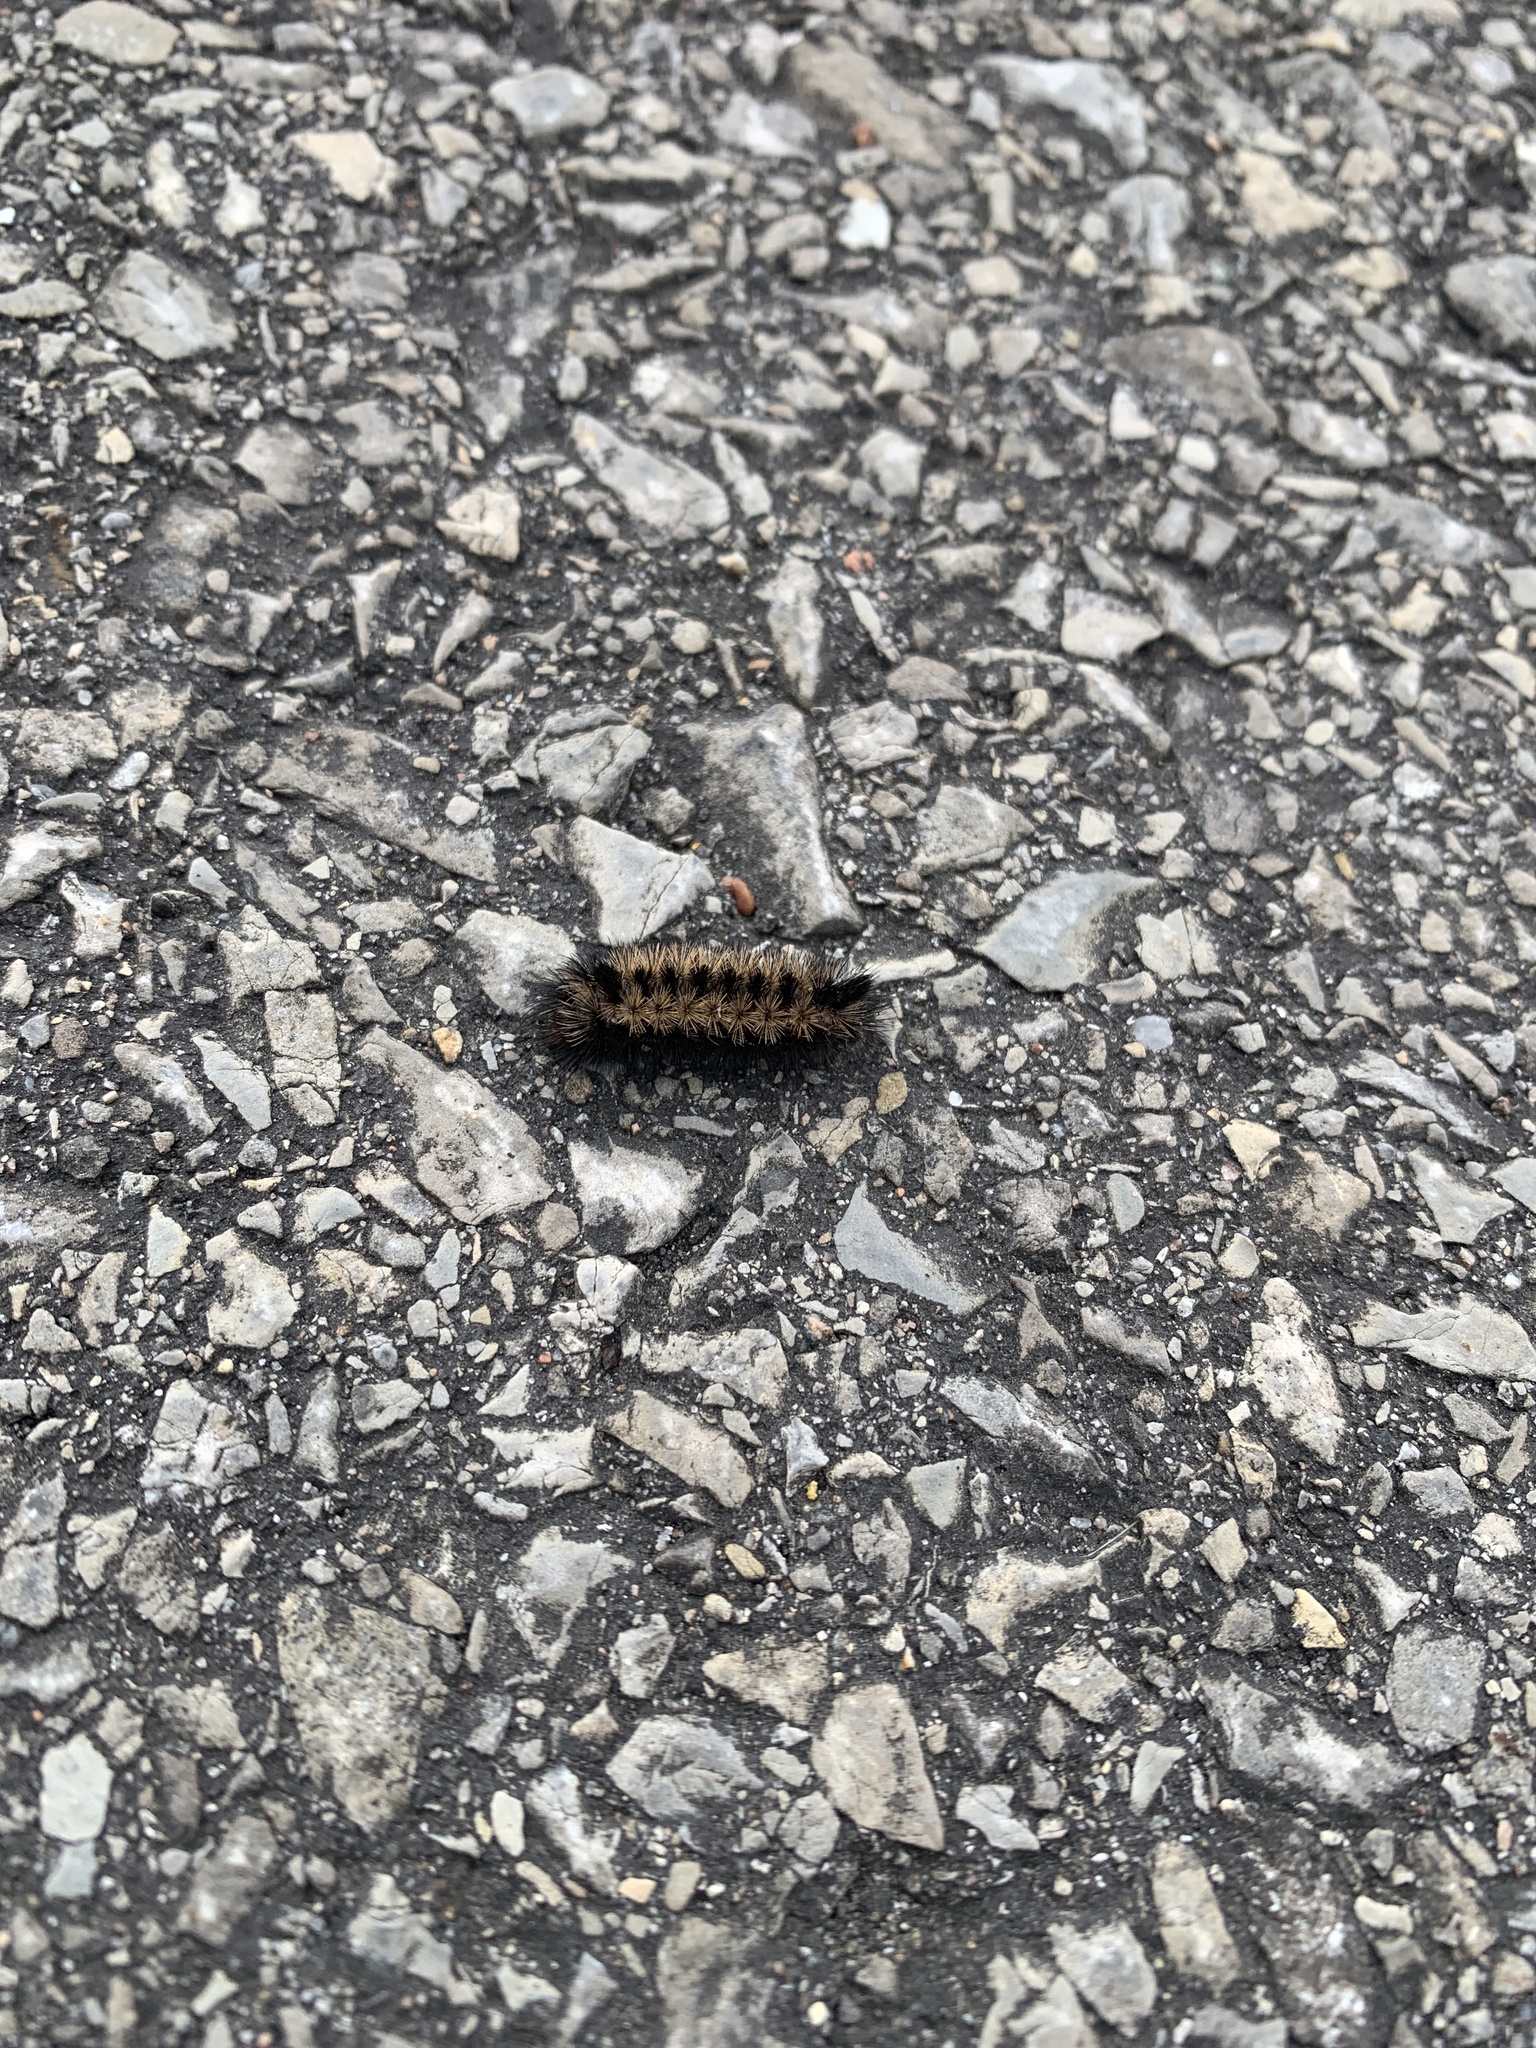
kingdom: Animalia
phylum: Arthropoda
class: Insecta
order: Lepidoptera
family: Erebidae
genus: Ctenucha
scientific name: Ctenucha virginica
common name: Virginia ctenucha moth
